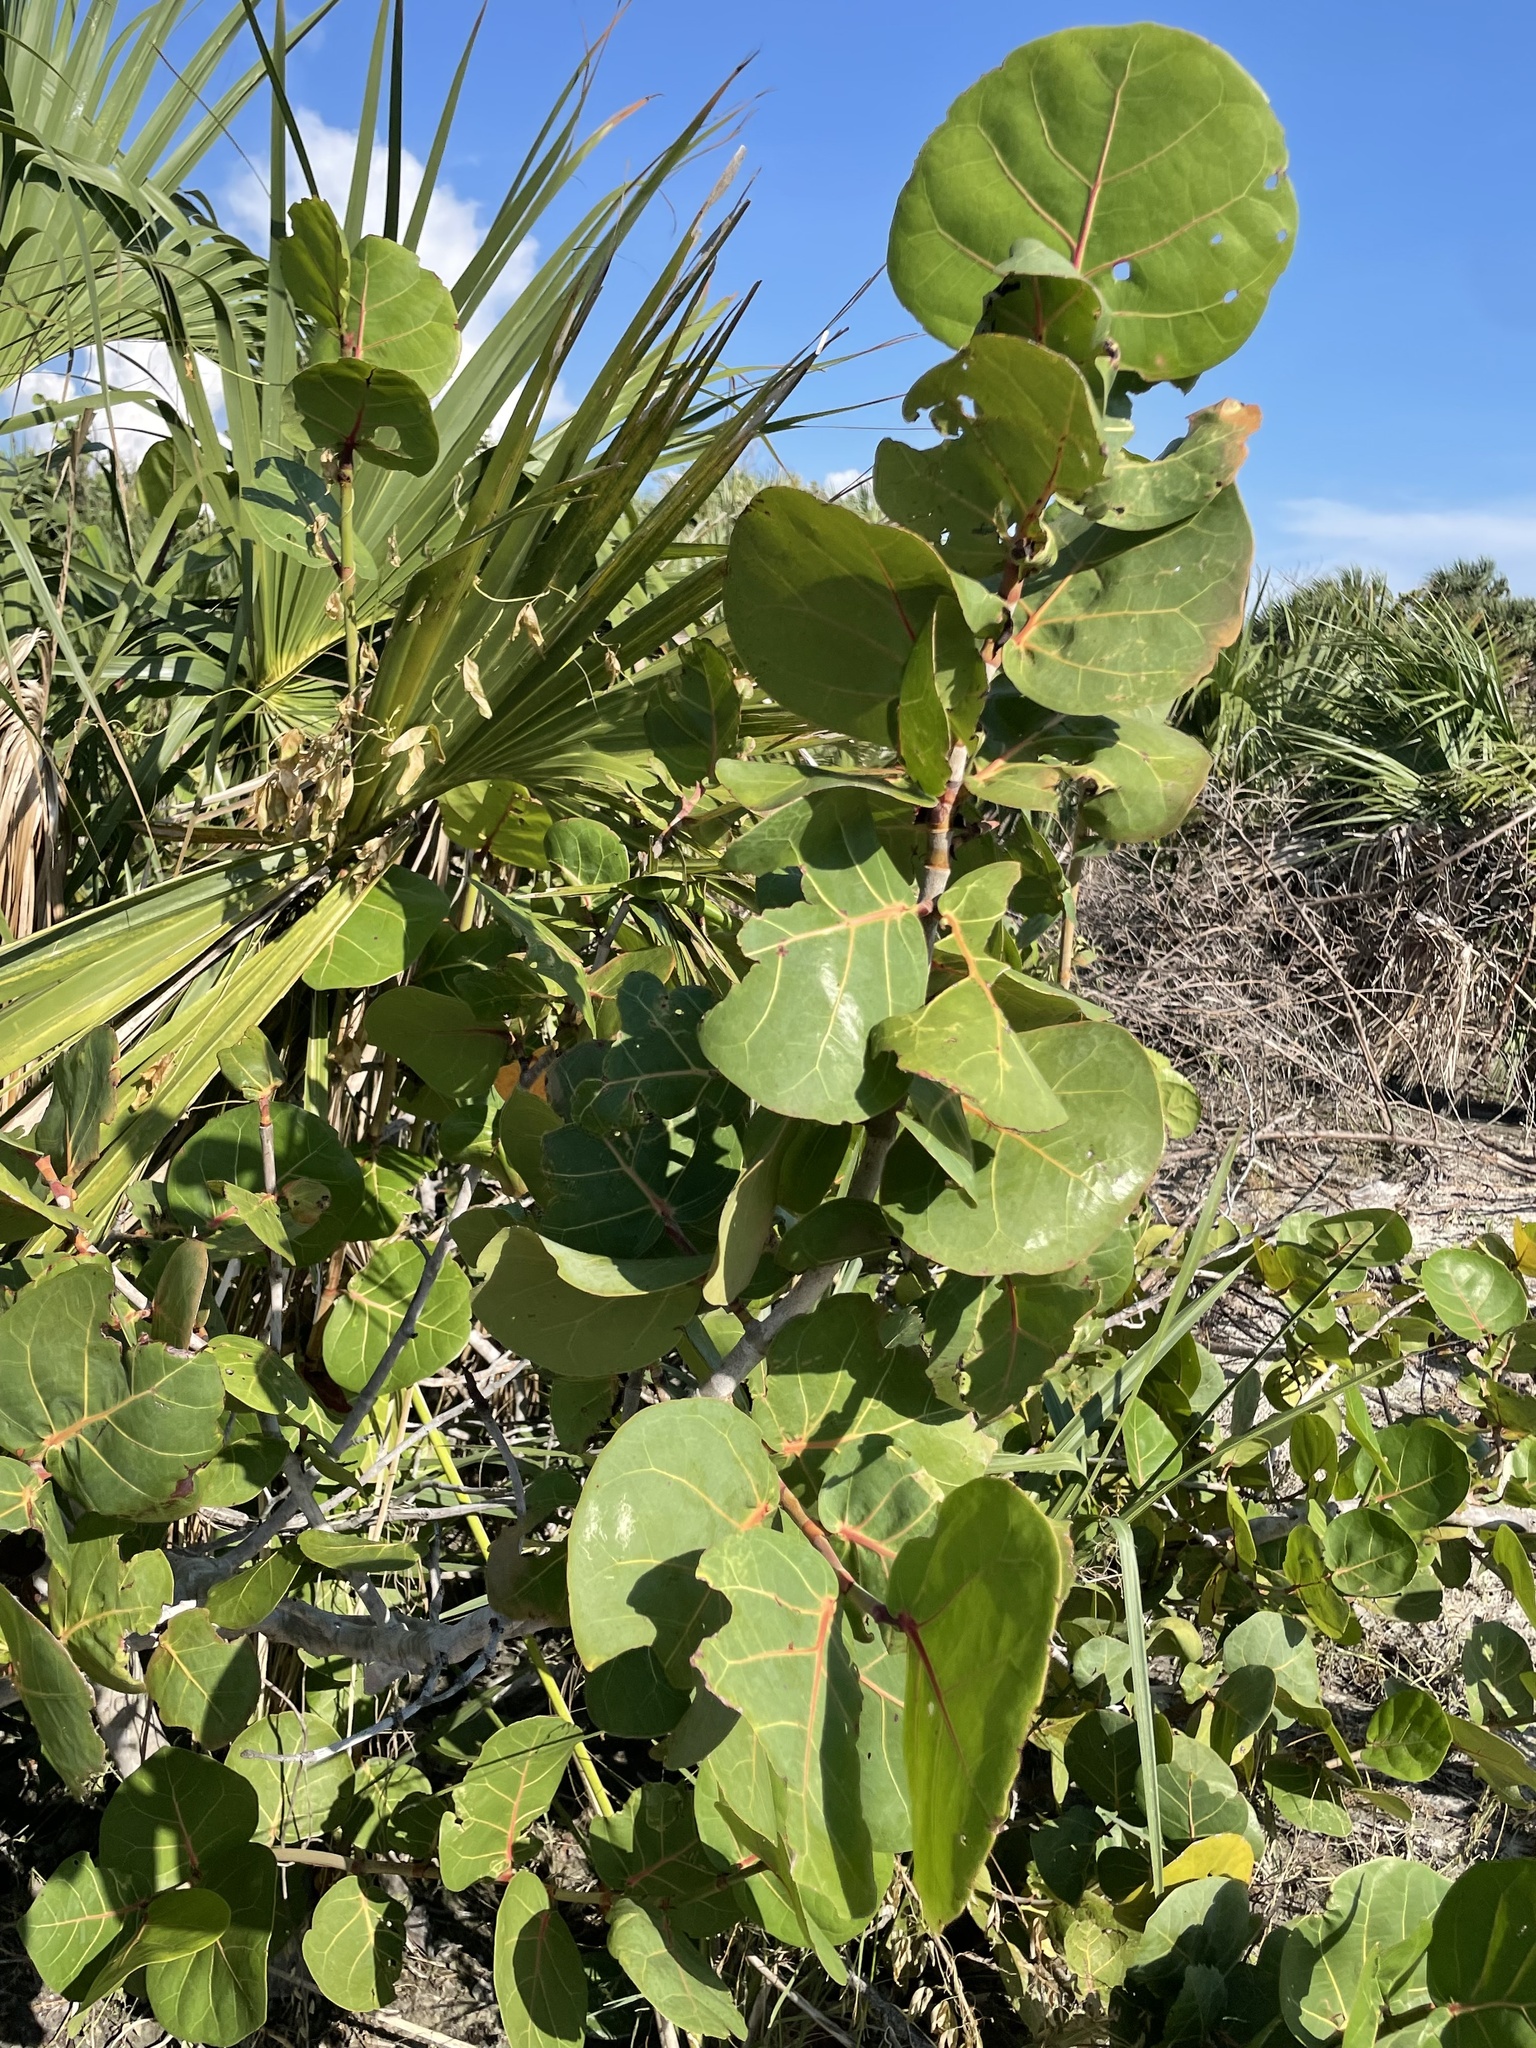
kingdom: Plantae
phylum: Tracheophyta
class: Magnoliopsida
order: Caryophyllales
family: Polygonaceae
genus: Coccoloba
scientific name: Coccoloba uvifera
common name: Seagrape
